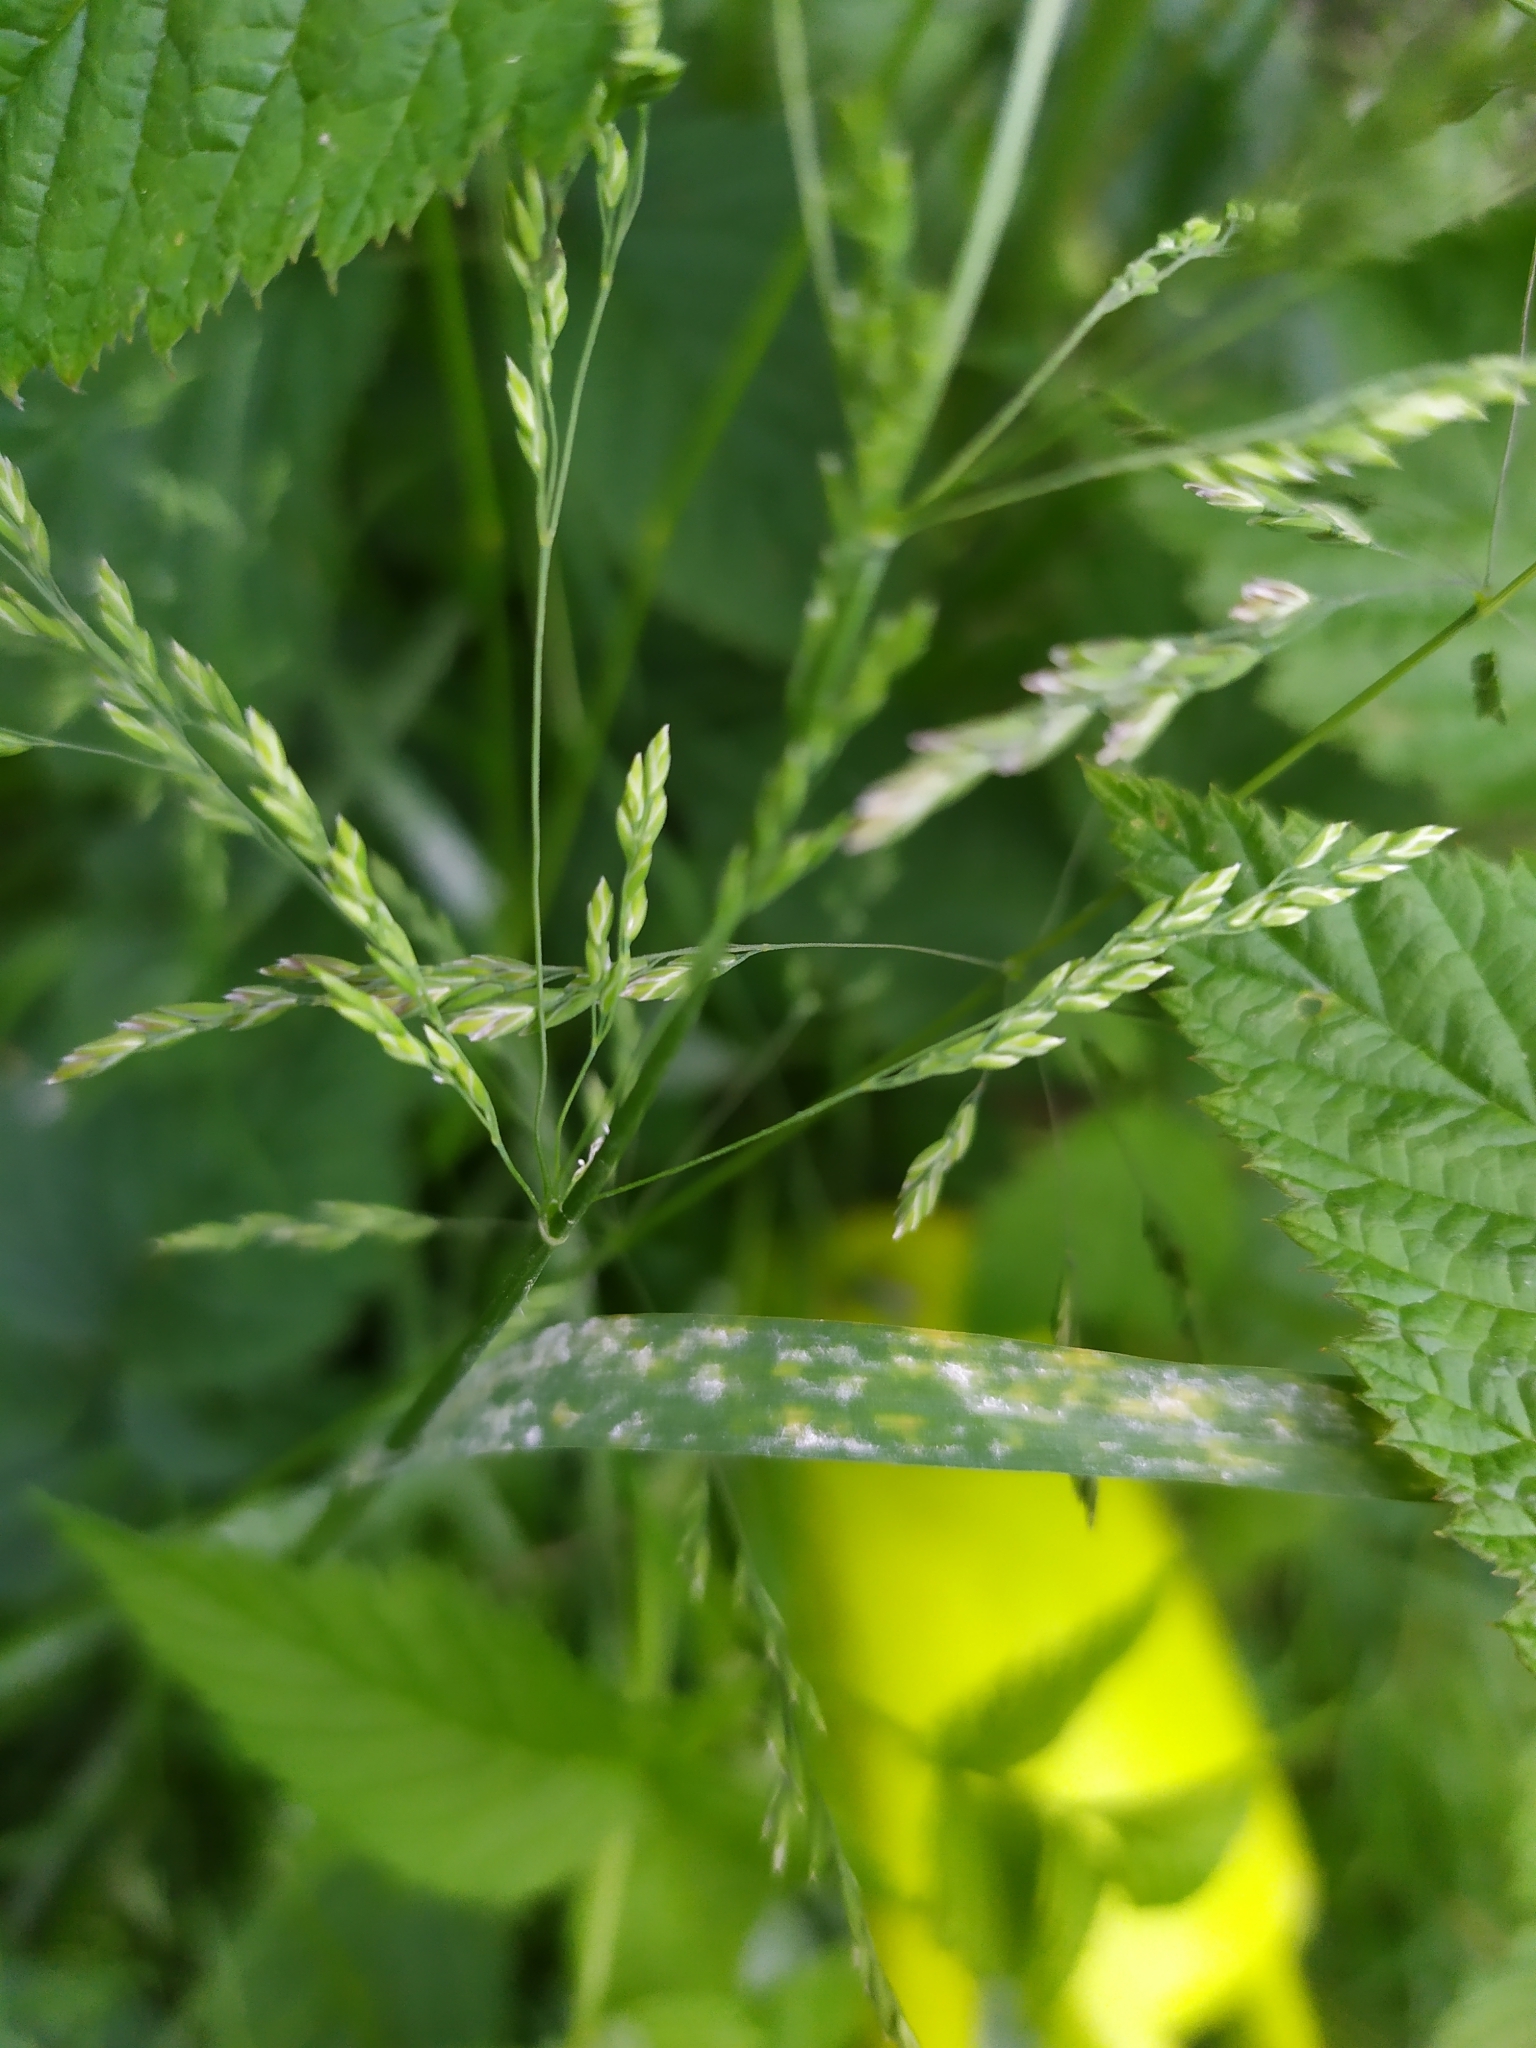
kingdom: Fungi
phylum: Ascomycota
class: Leotiomycetes
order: Helotiales
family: Erysiphaceae
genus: Blumeria
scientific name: Blumeria graminicola
